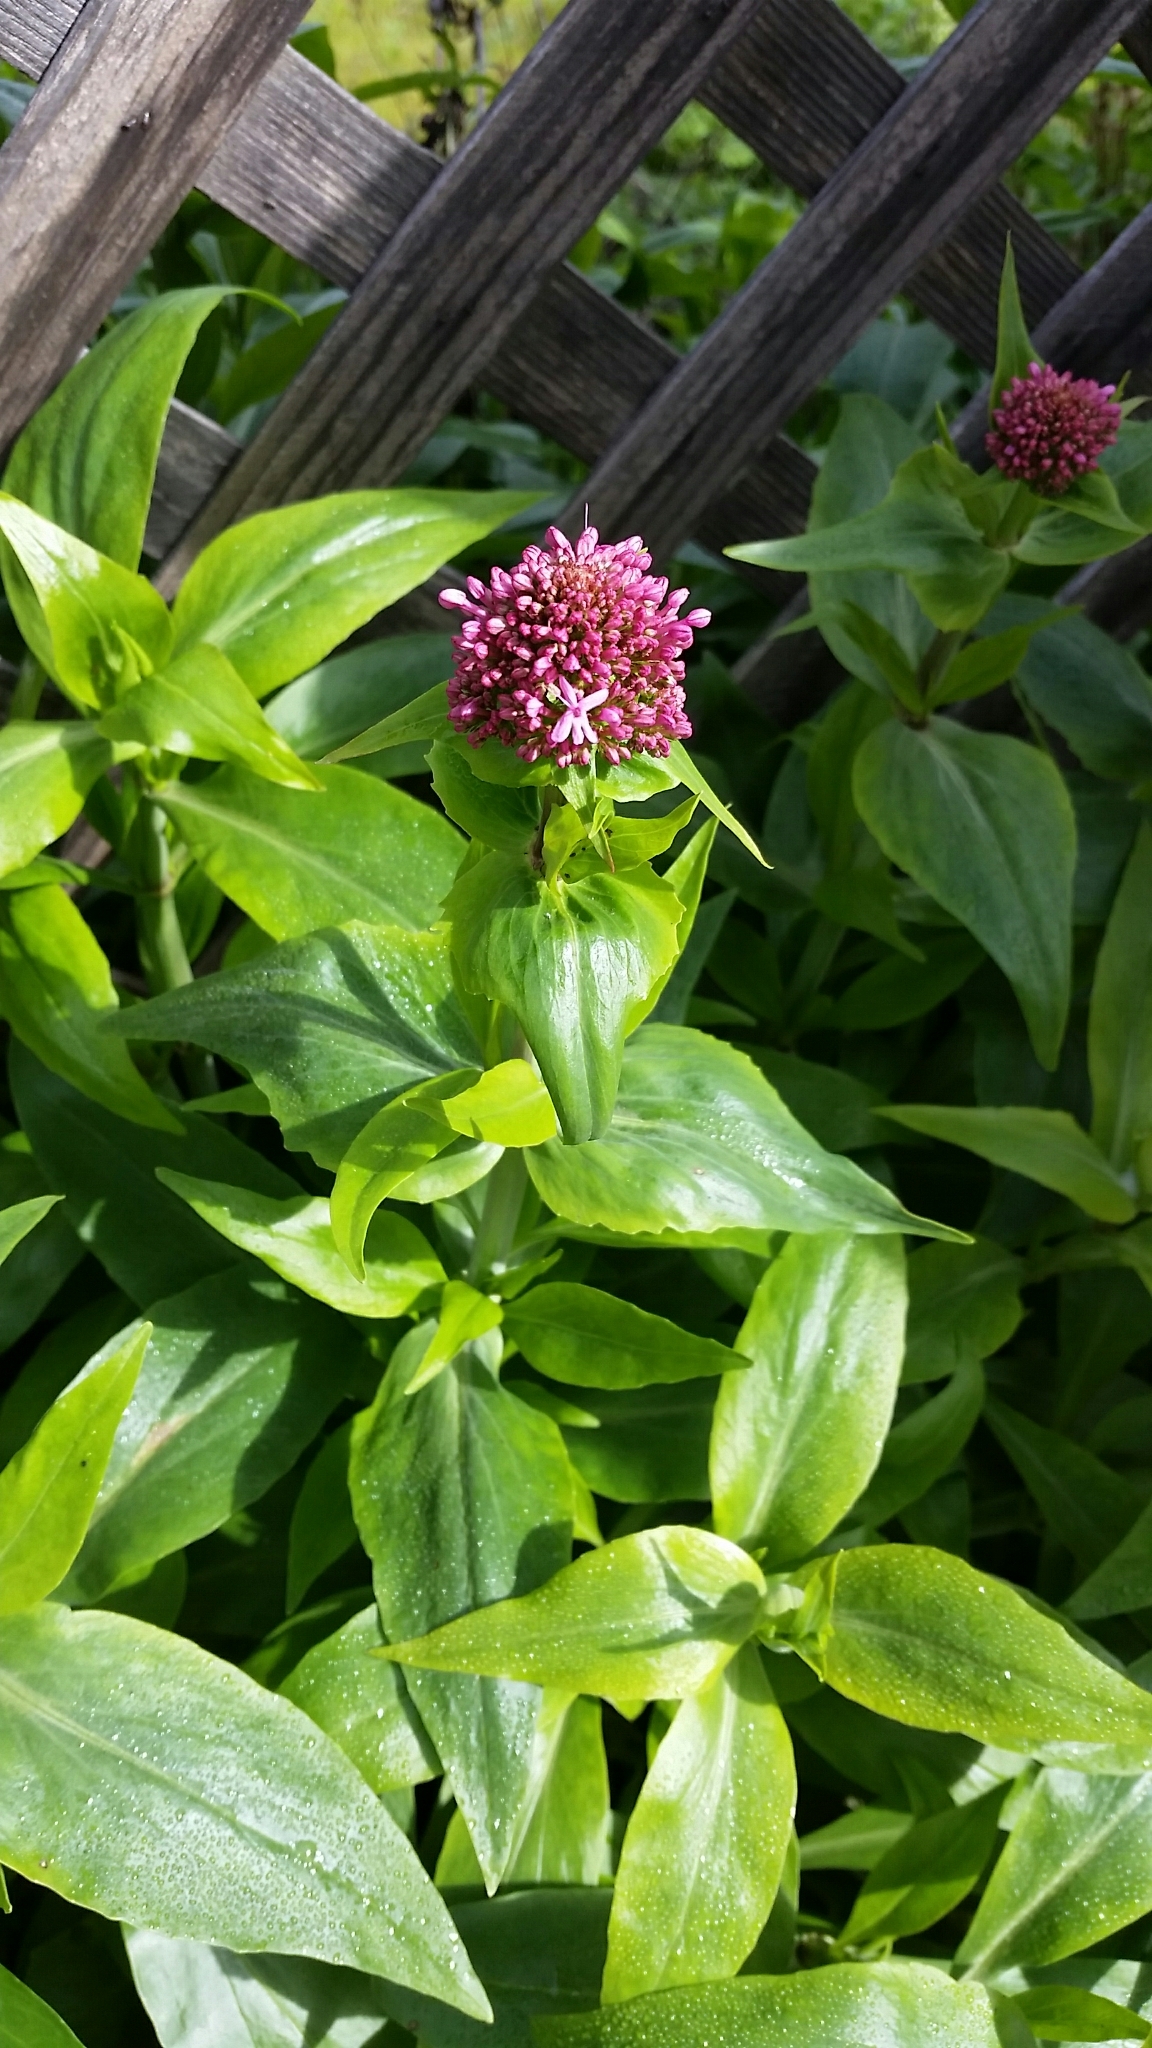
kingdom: Plantae
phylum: Tracheophyta
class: Magnoliopsida
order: Dipsacales
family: Caprifoliaceae
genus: Centranthus
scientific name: Centranthus ruber
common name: Red valerian
